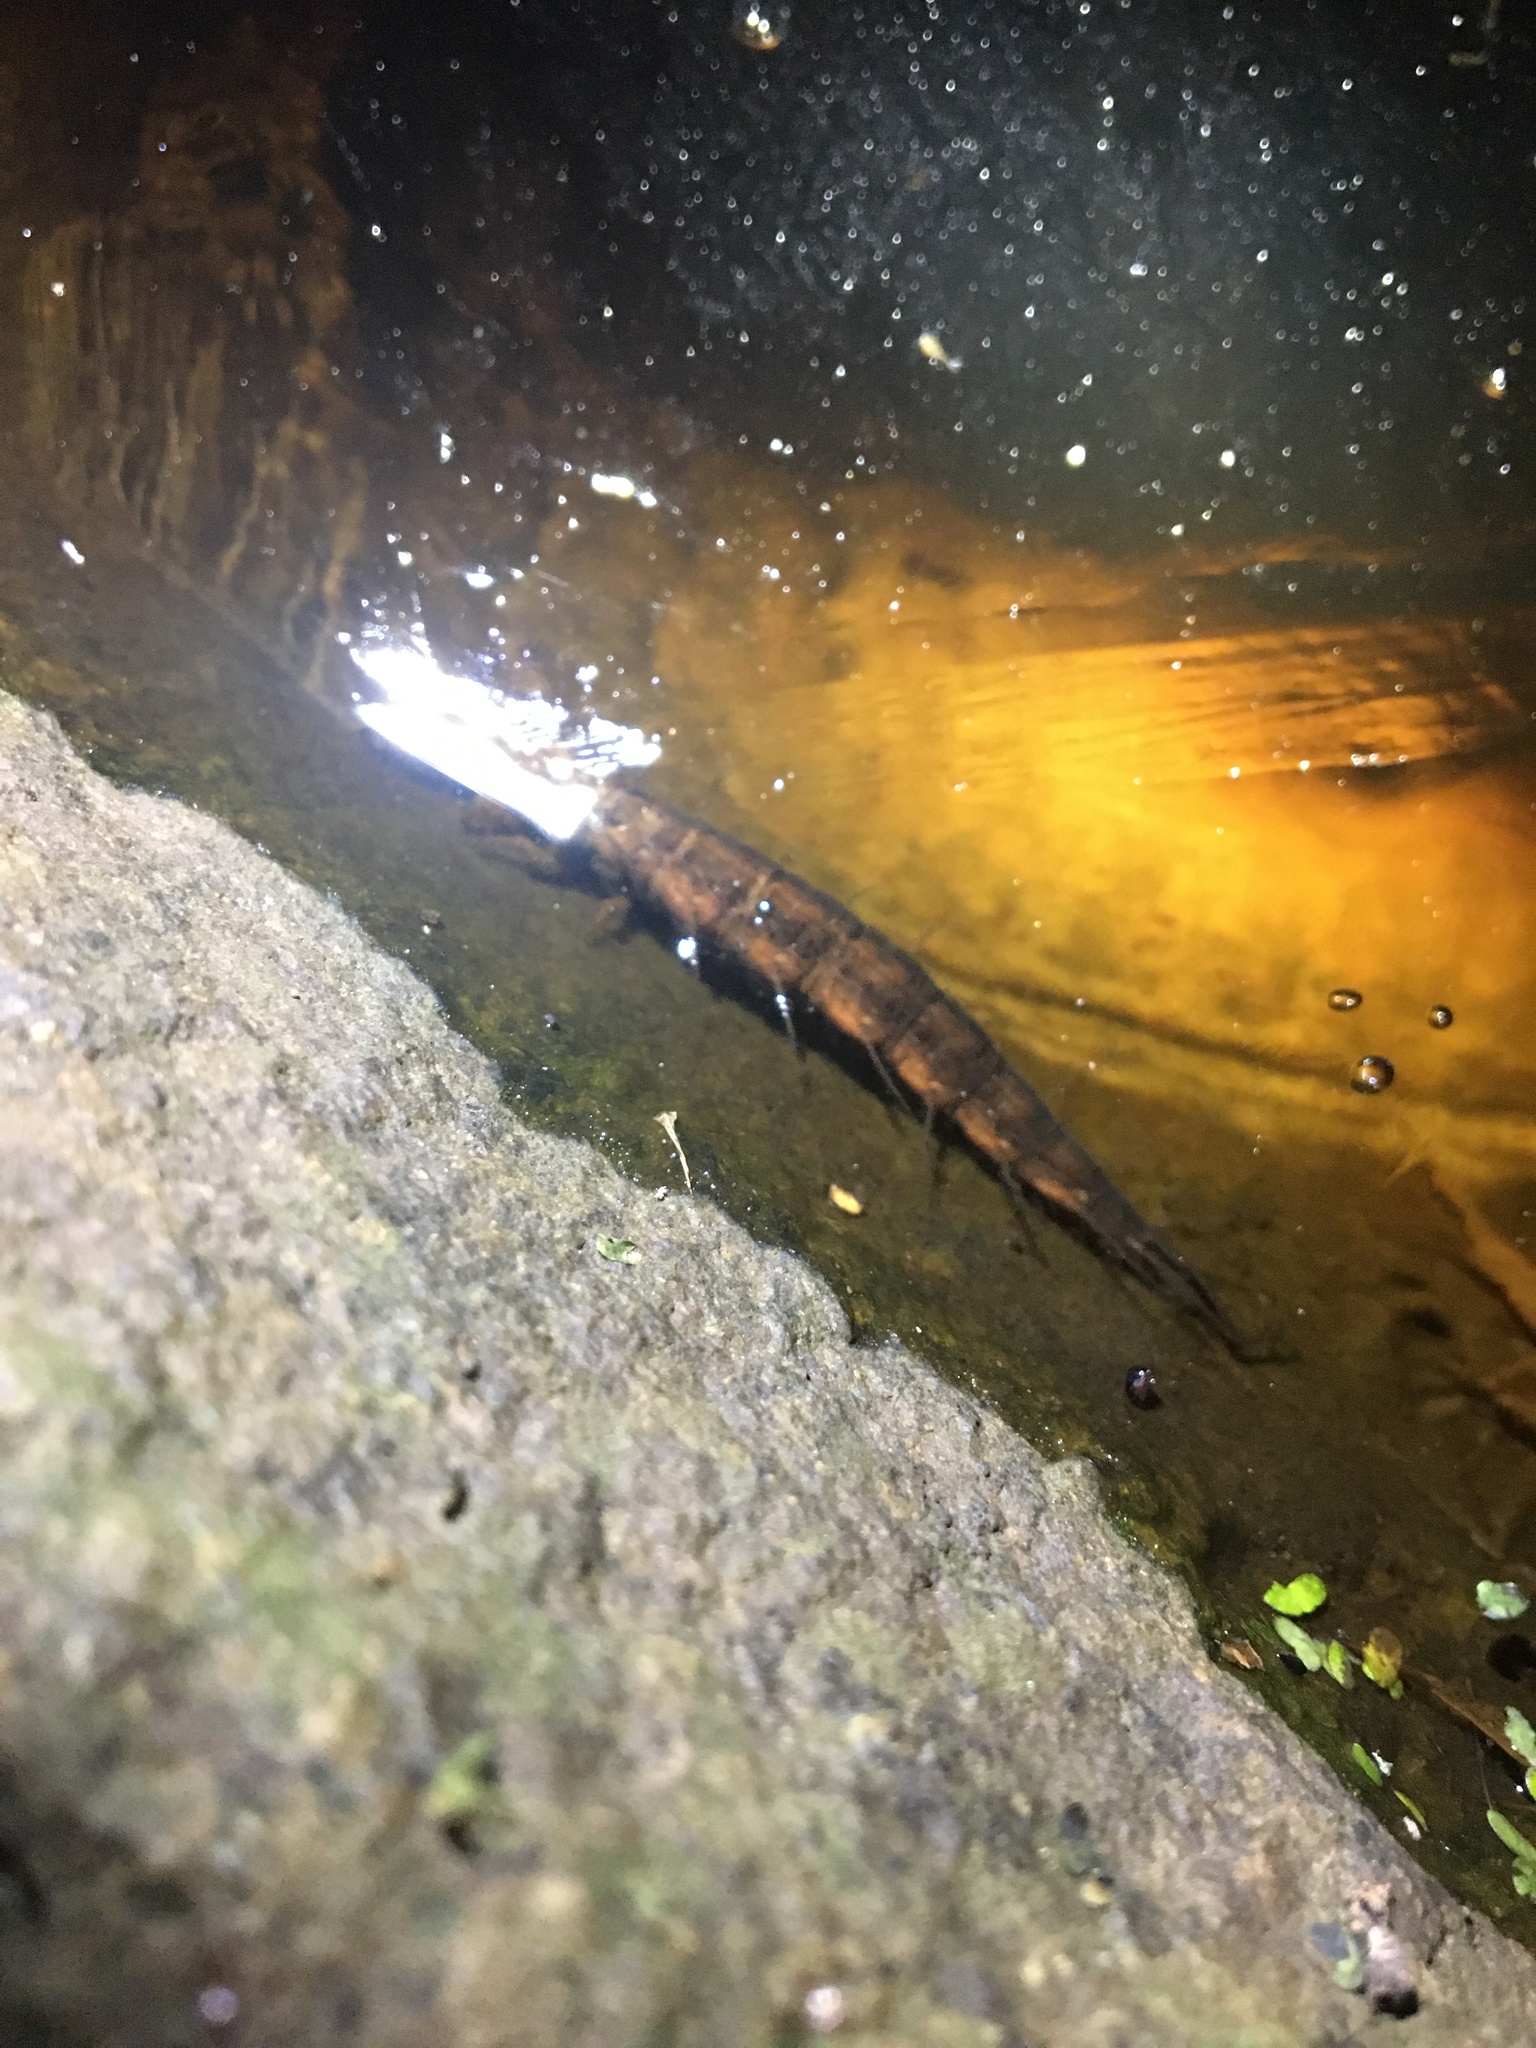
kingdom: Animalia
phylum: Arthropoda
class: Insecta
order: Megaloptera
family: Corydalidae
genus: Chauliodes
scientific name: Chauliodes rastricornis
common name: Spring fishfly
